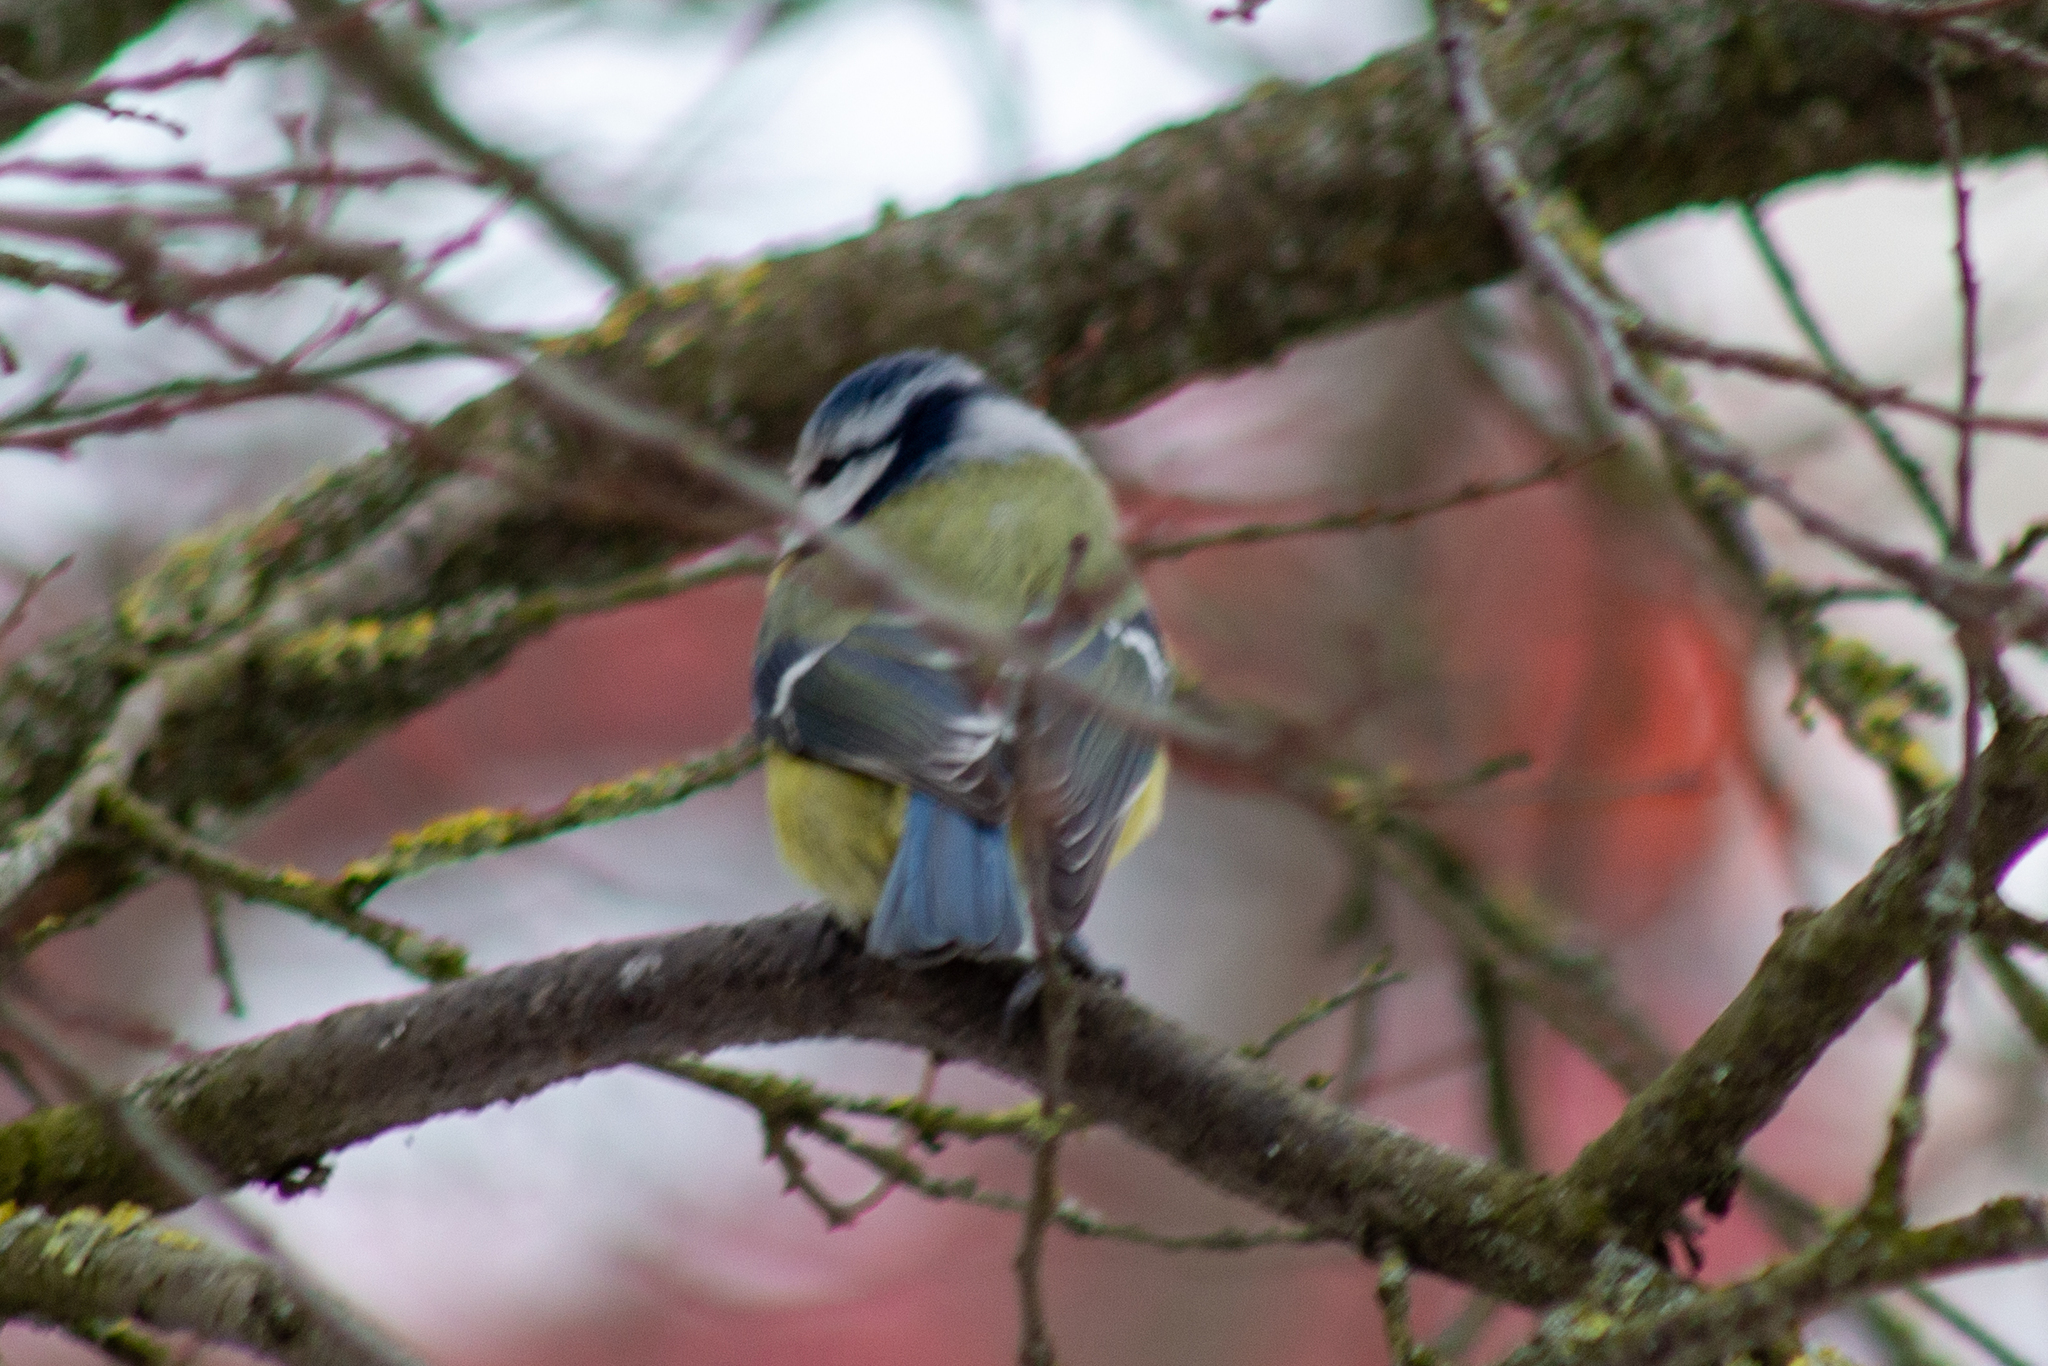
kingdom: Animalia
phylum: Chordata
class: Aves
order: Passeriformes
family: Paridae
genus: Cyanistes
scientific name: Cyanistes caeruleus
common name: Eurasian blue tit
